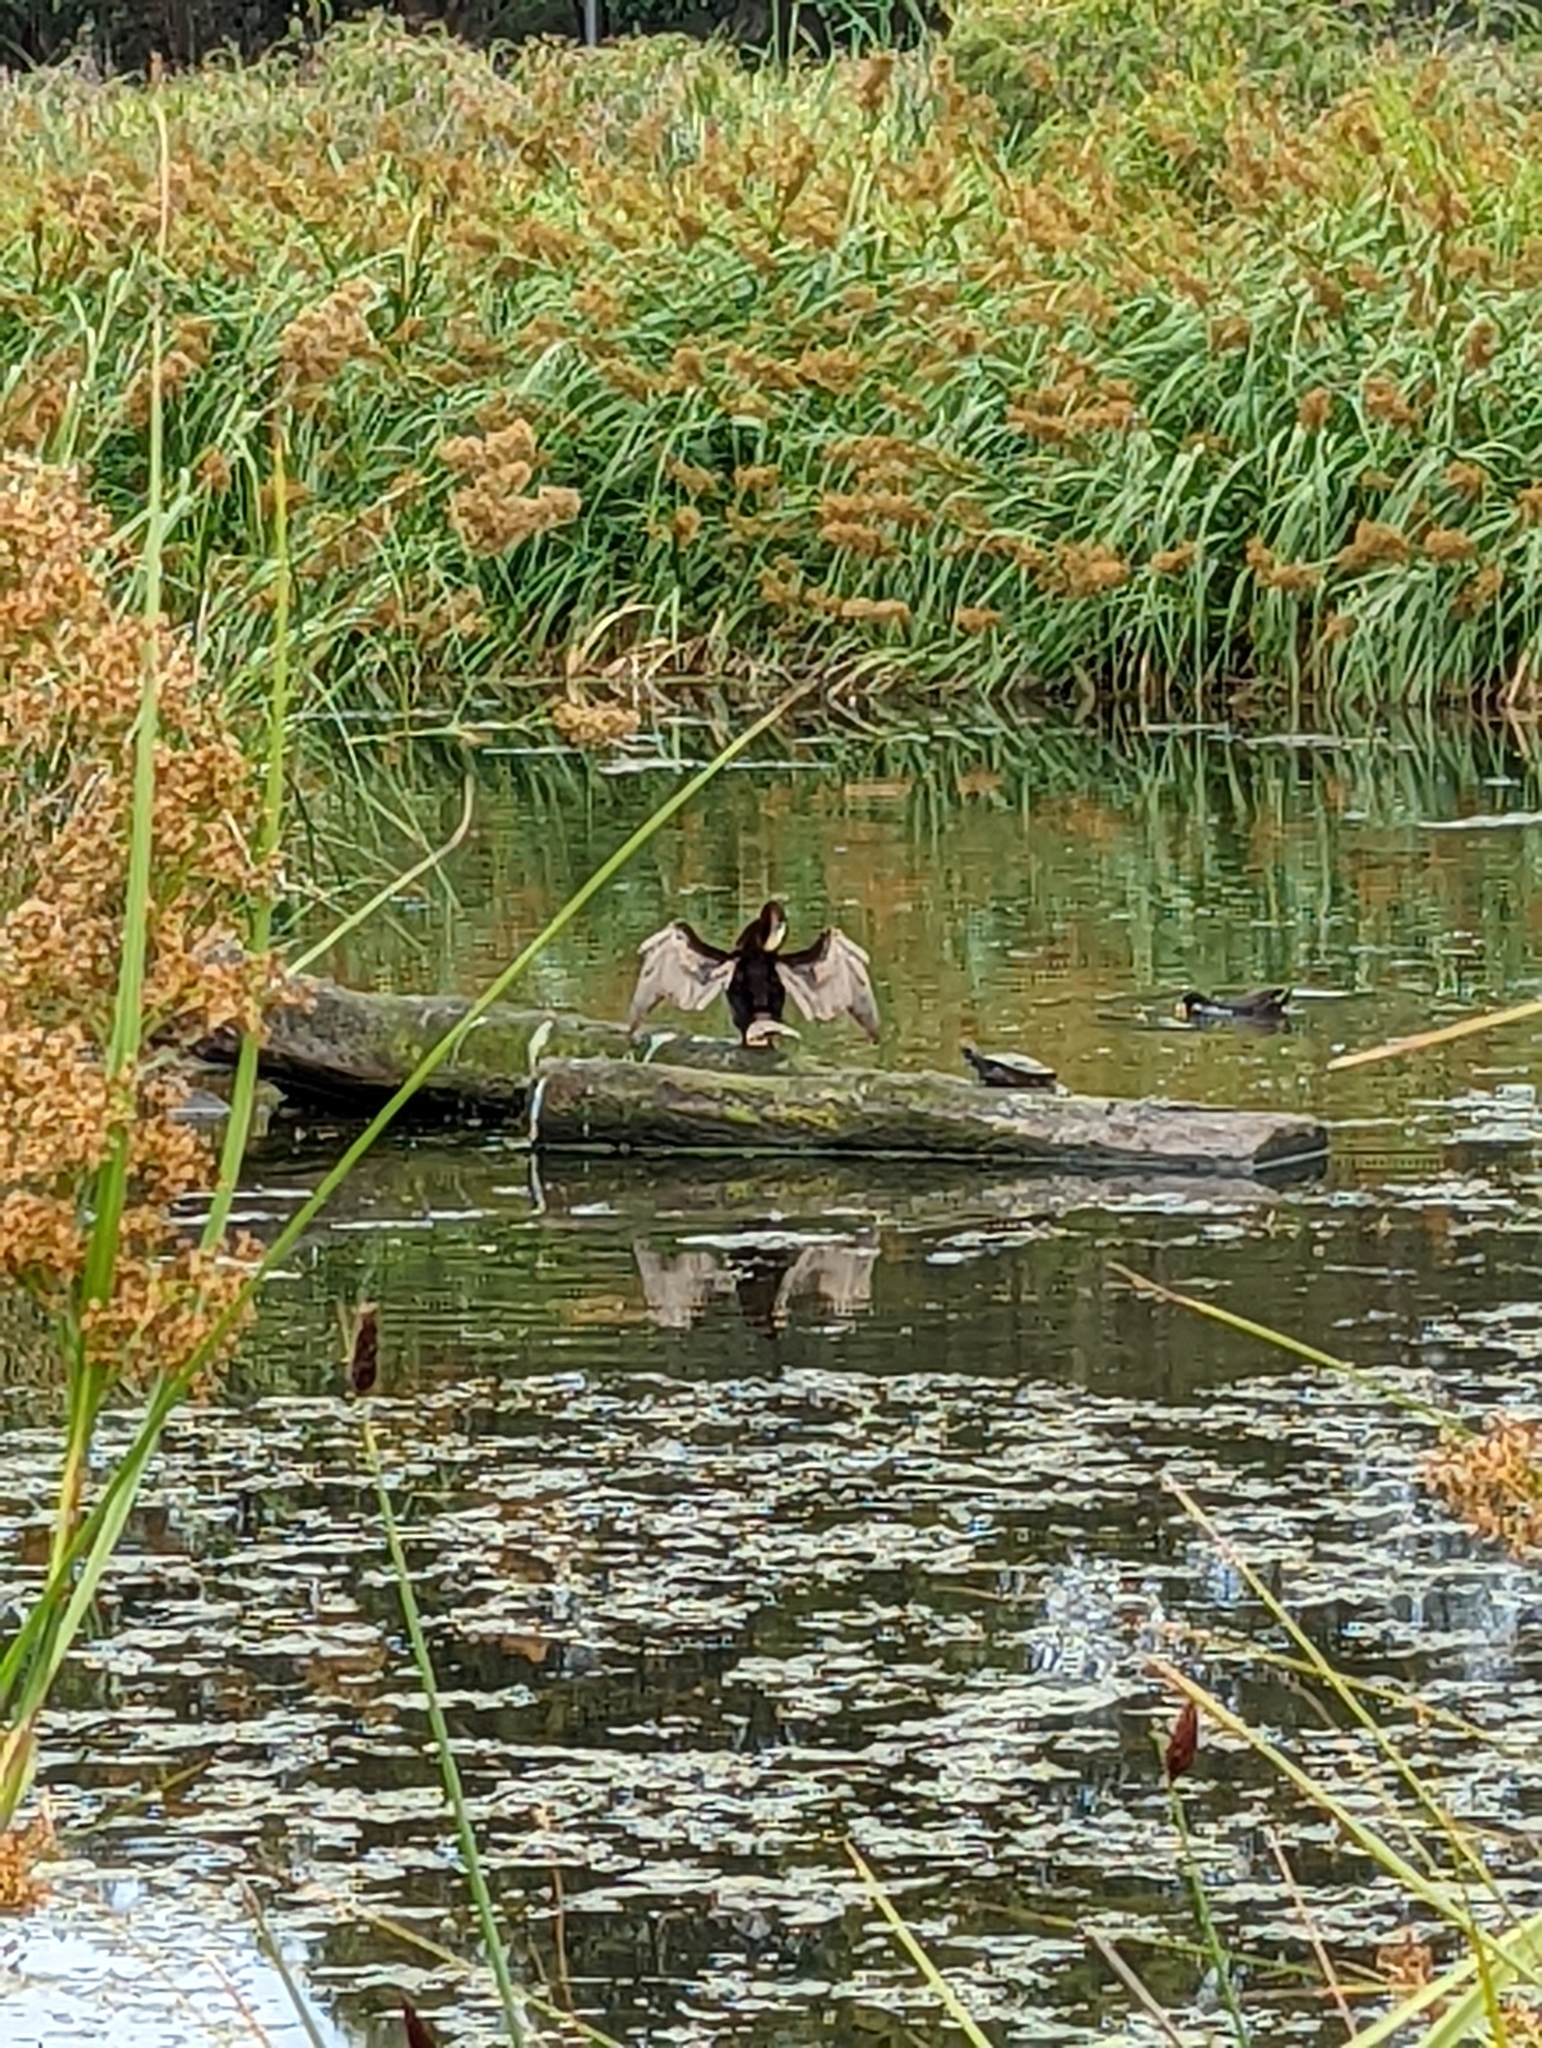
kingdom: Animalia
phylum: Chordata
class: Aves
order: Suliformes
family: Anhingidae
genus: Anhinga
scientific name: Anhinga novaehollandiae
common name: Australasian darter
